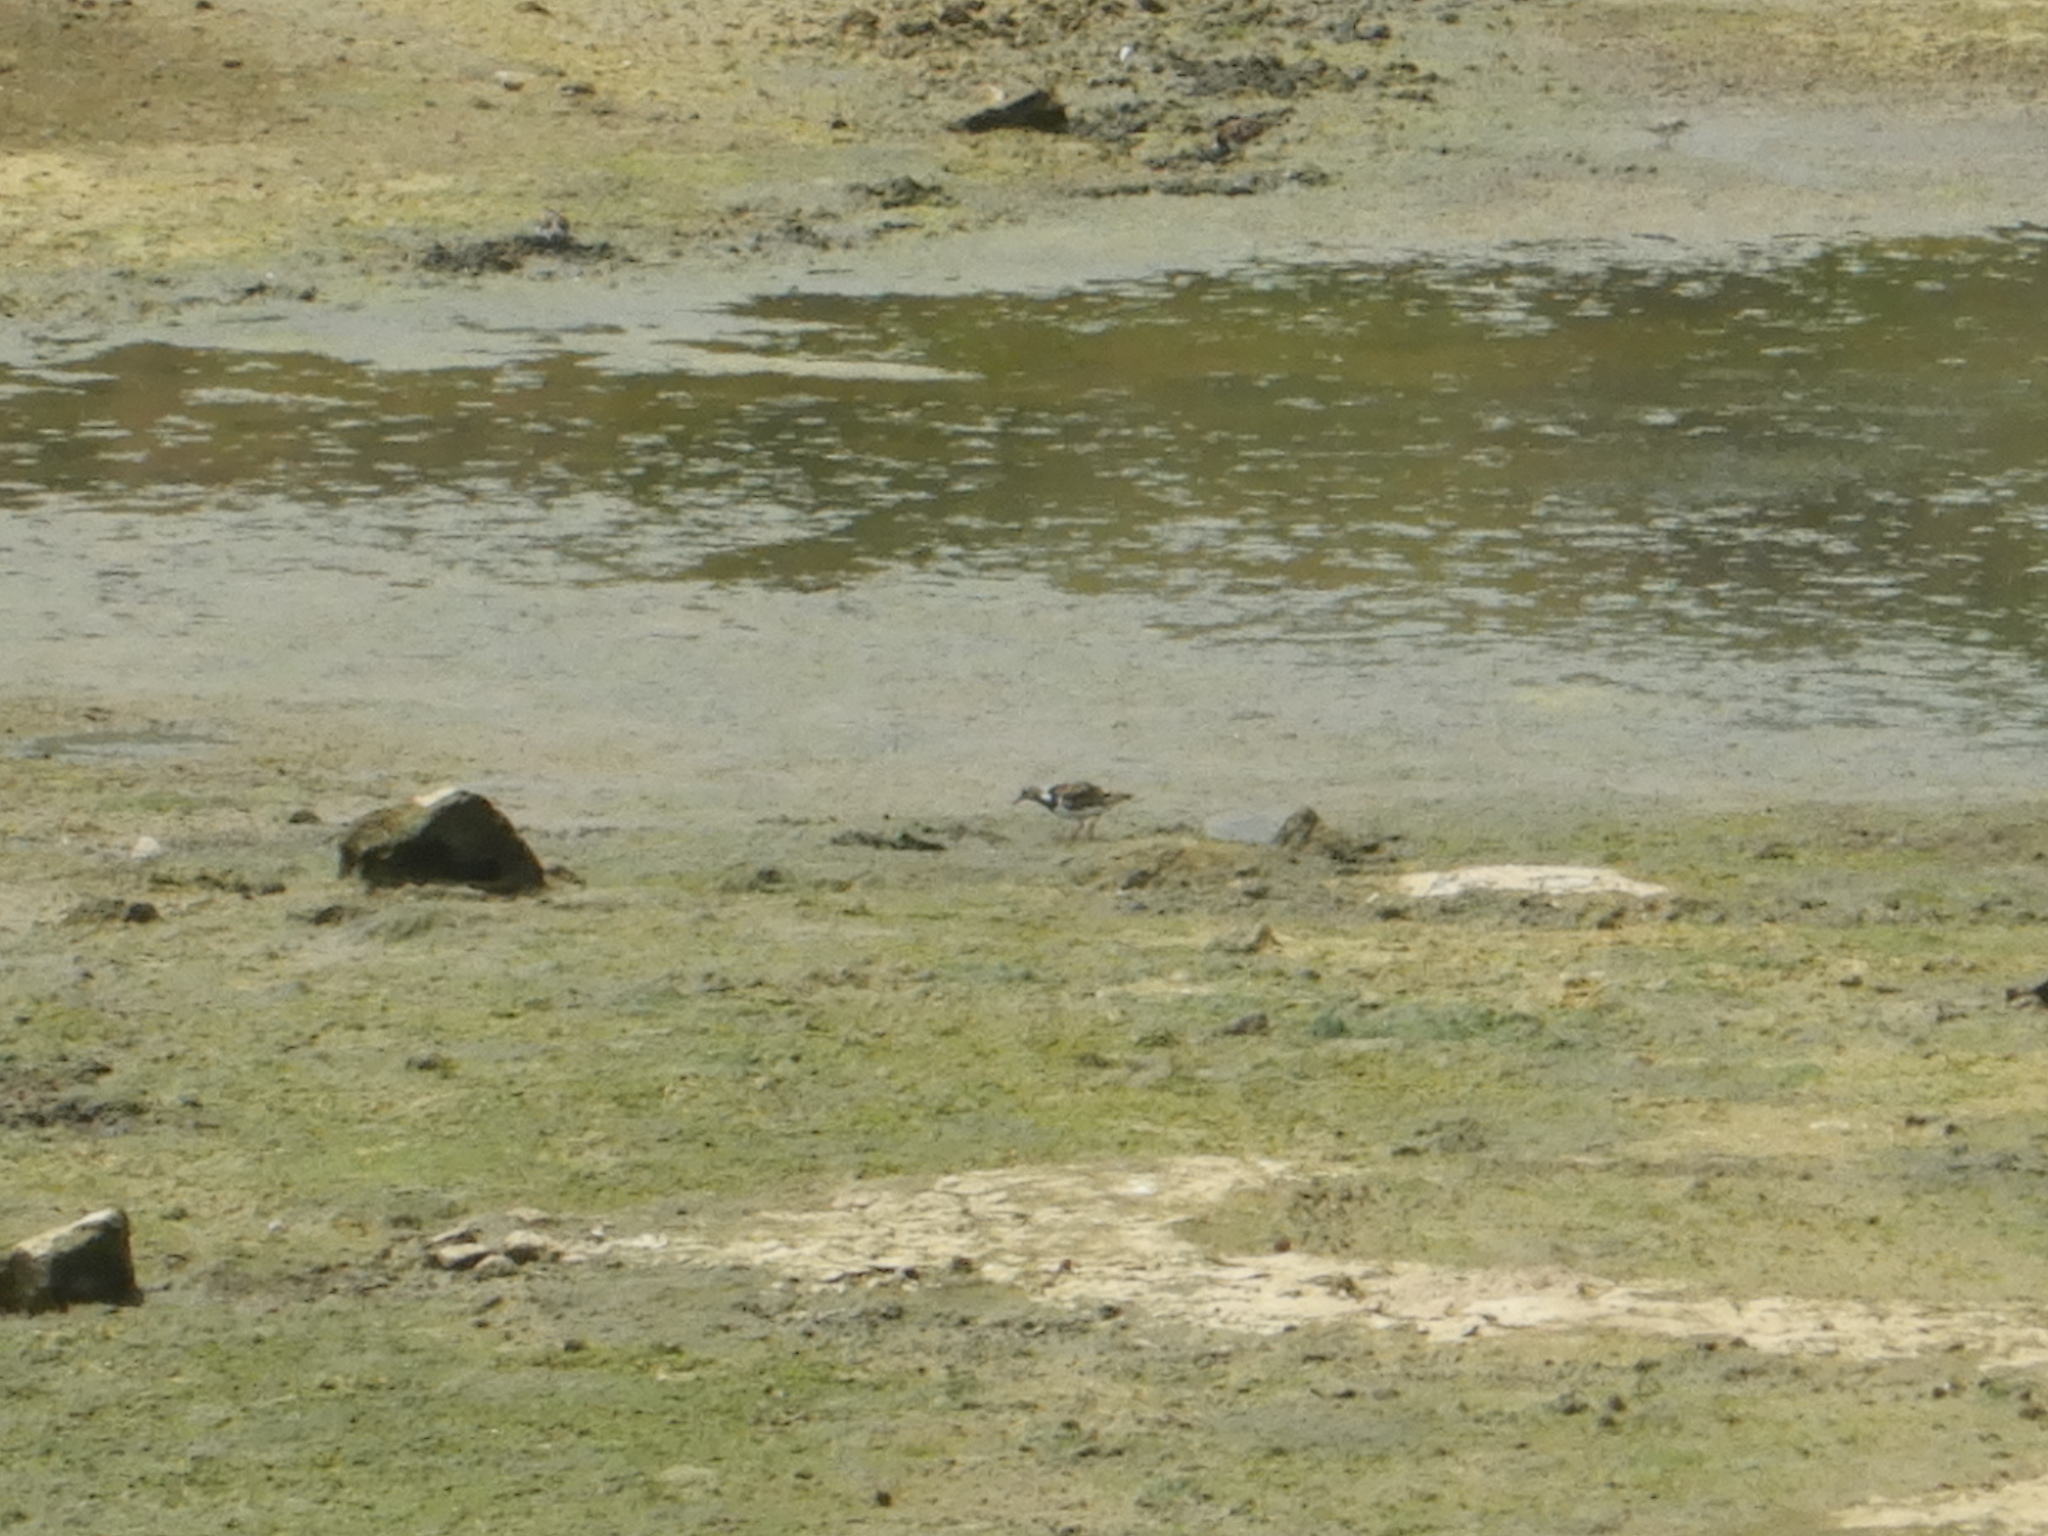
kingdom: Animalia
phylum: Chordata
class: Aves
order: Charadriiformes
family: Scolopacidae
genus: Arenaria
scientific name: Arenaria interpres
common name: Ruddy turnstone
